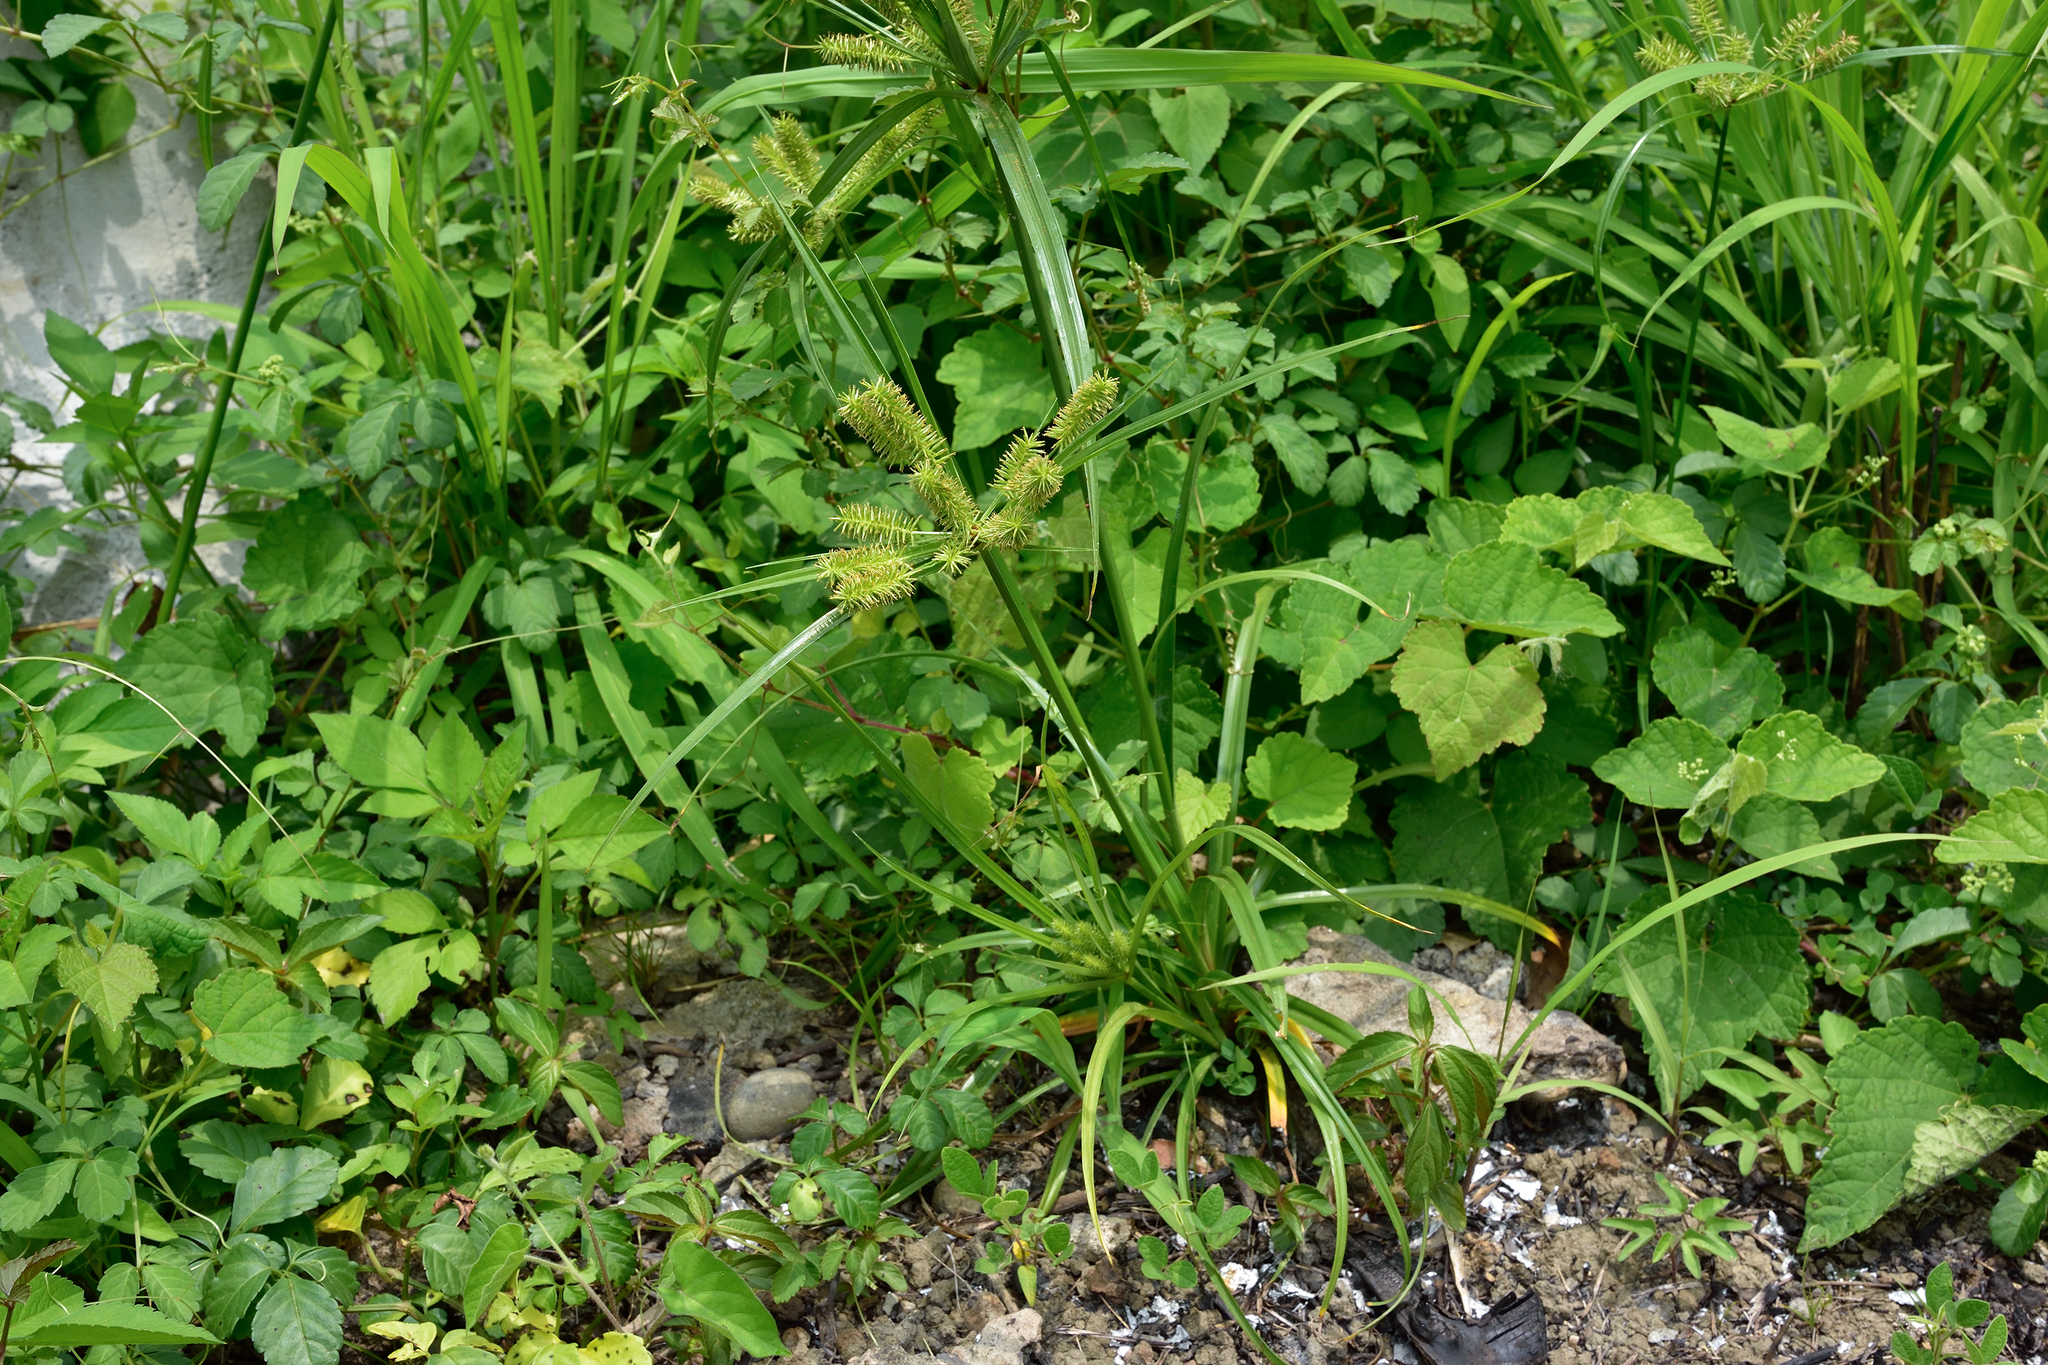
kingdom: Plantae
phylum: Tracheophyta
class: Liliopsida
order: Poales
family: Cyperaceae
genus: Cyperus
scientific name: Cyperus cyperoides
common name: Pacific island flat sedge
